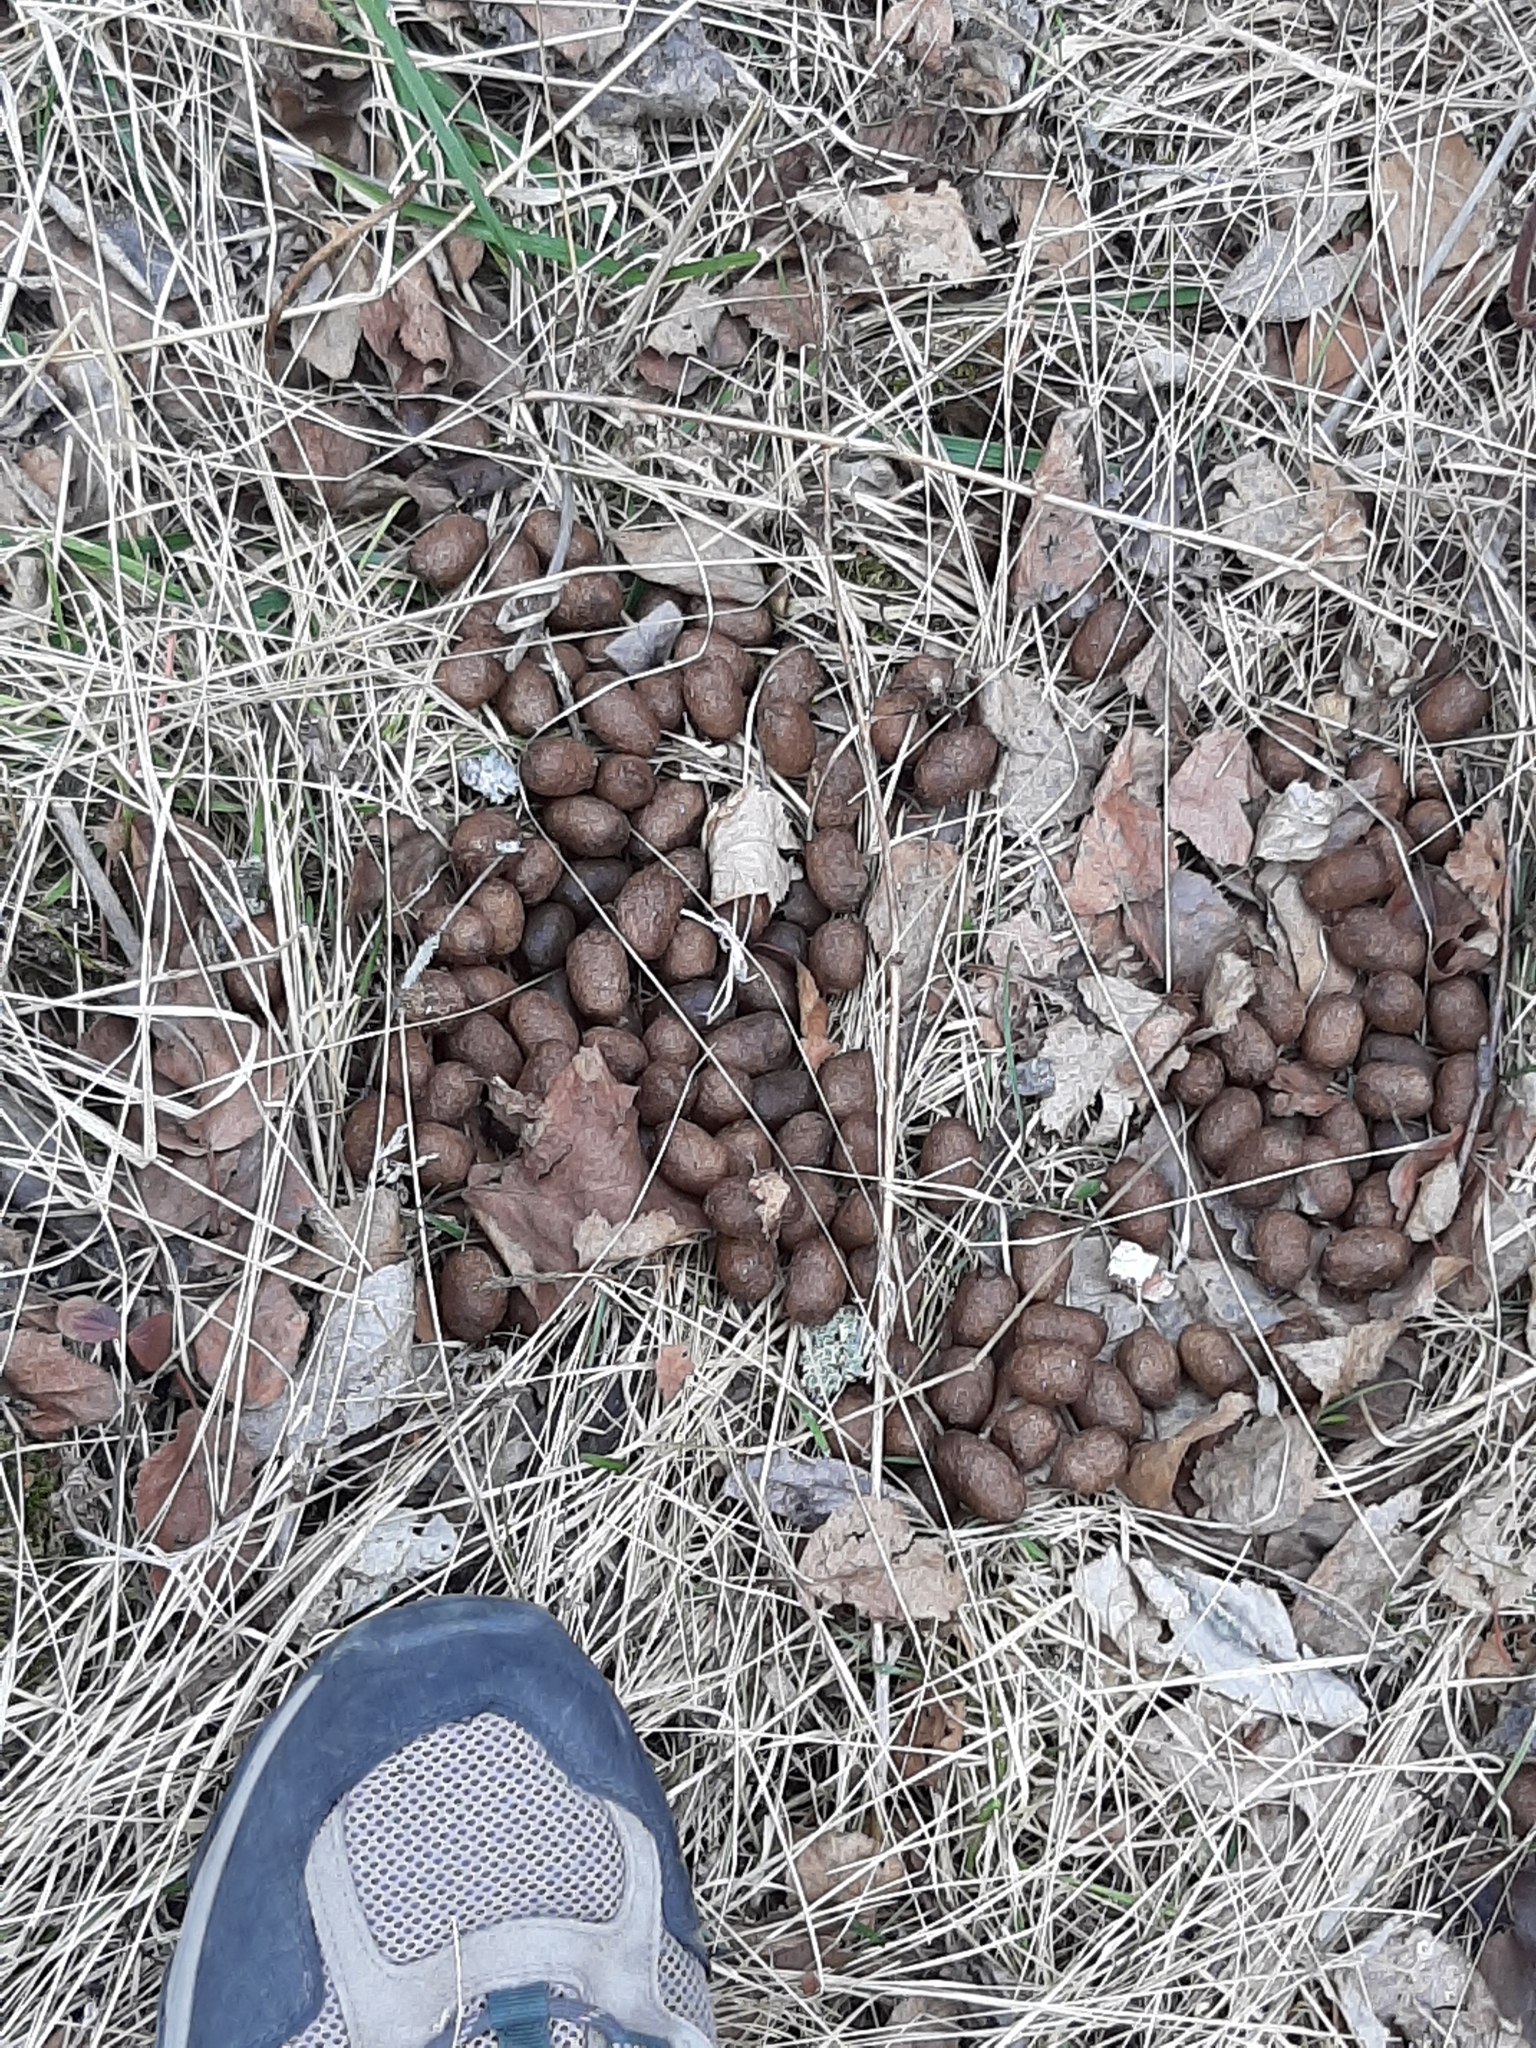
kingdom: Animalia
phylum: Chordata
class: Mammalia
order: Artiodactyla
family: Cervidae
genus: Alces
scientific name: Alces alces
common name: Moose
